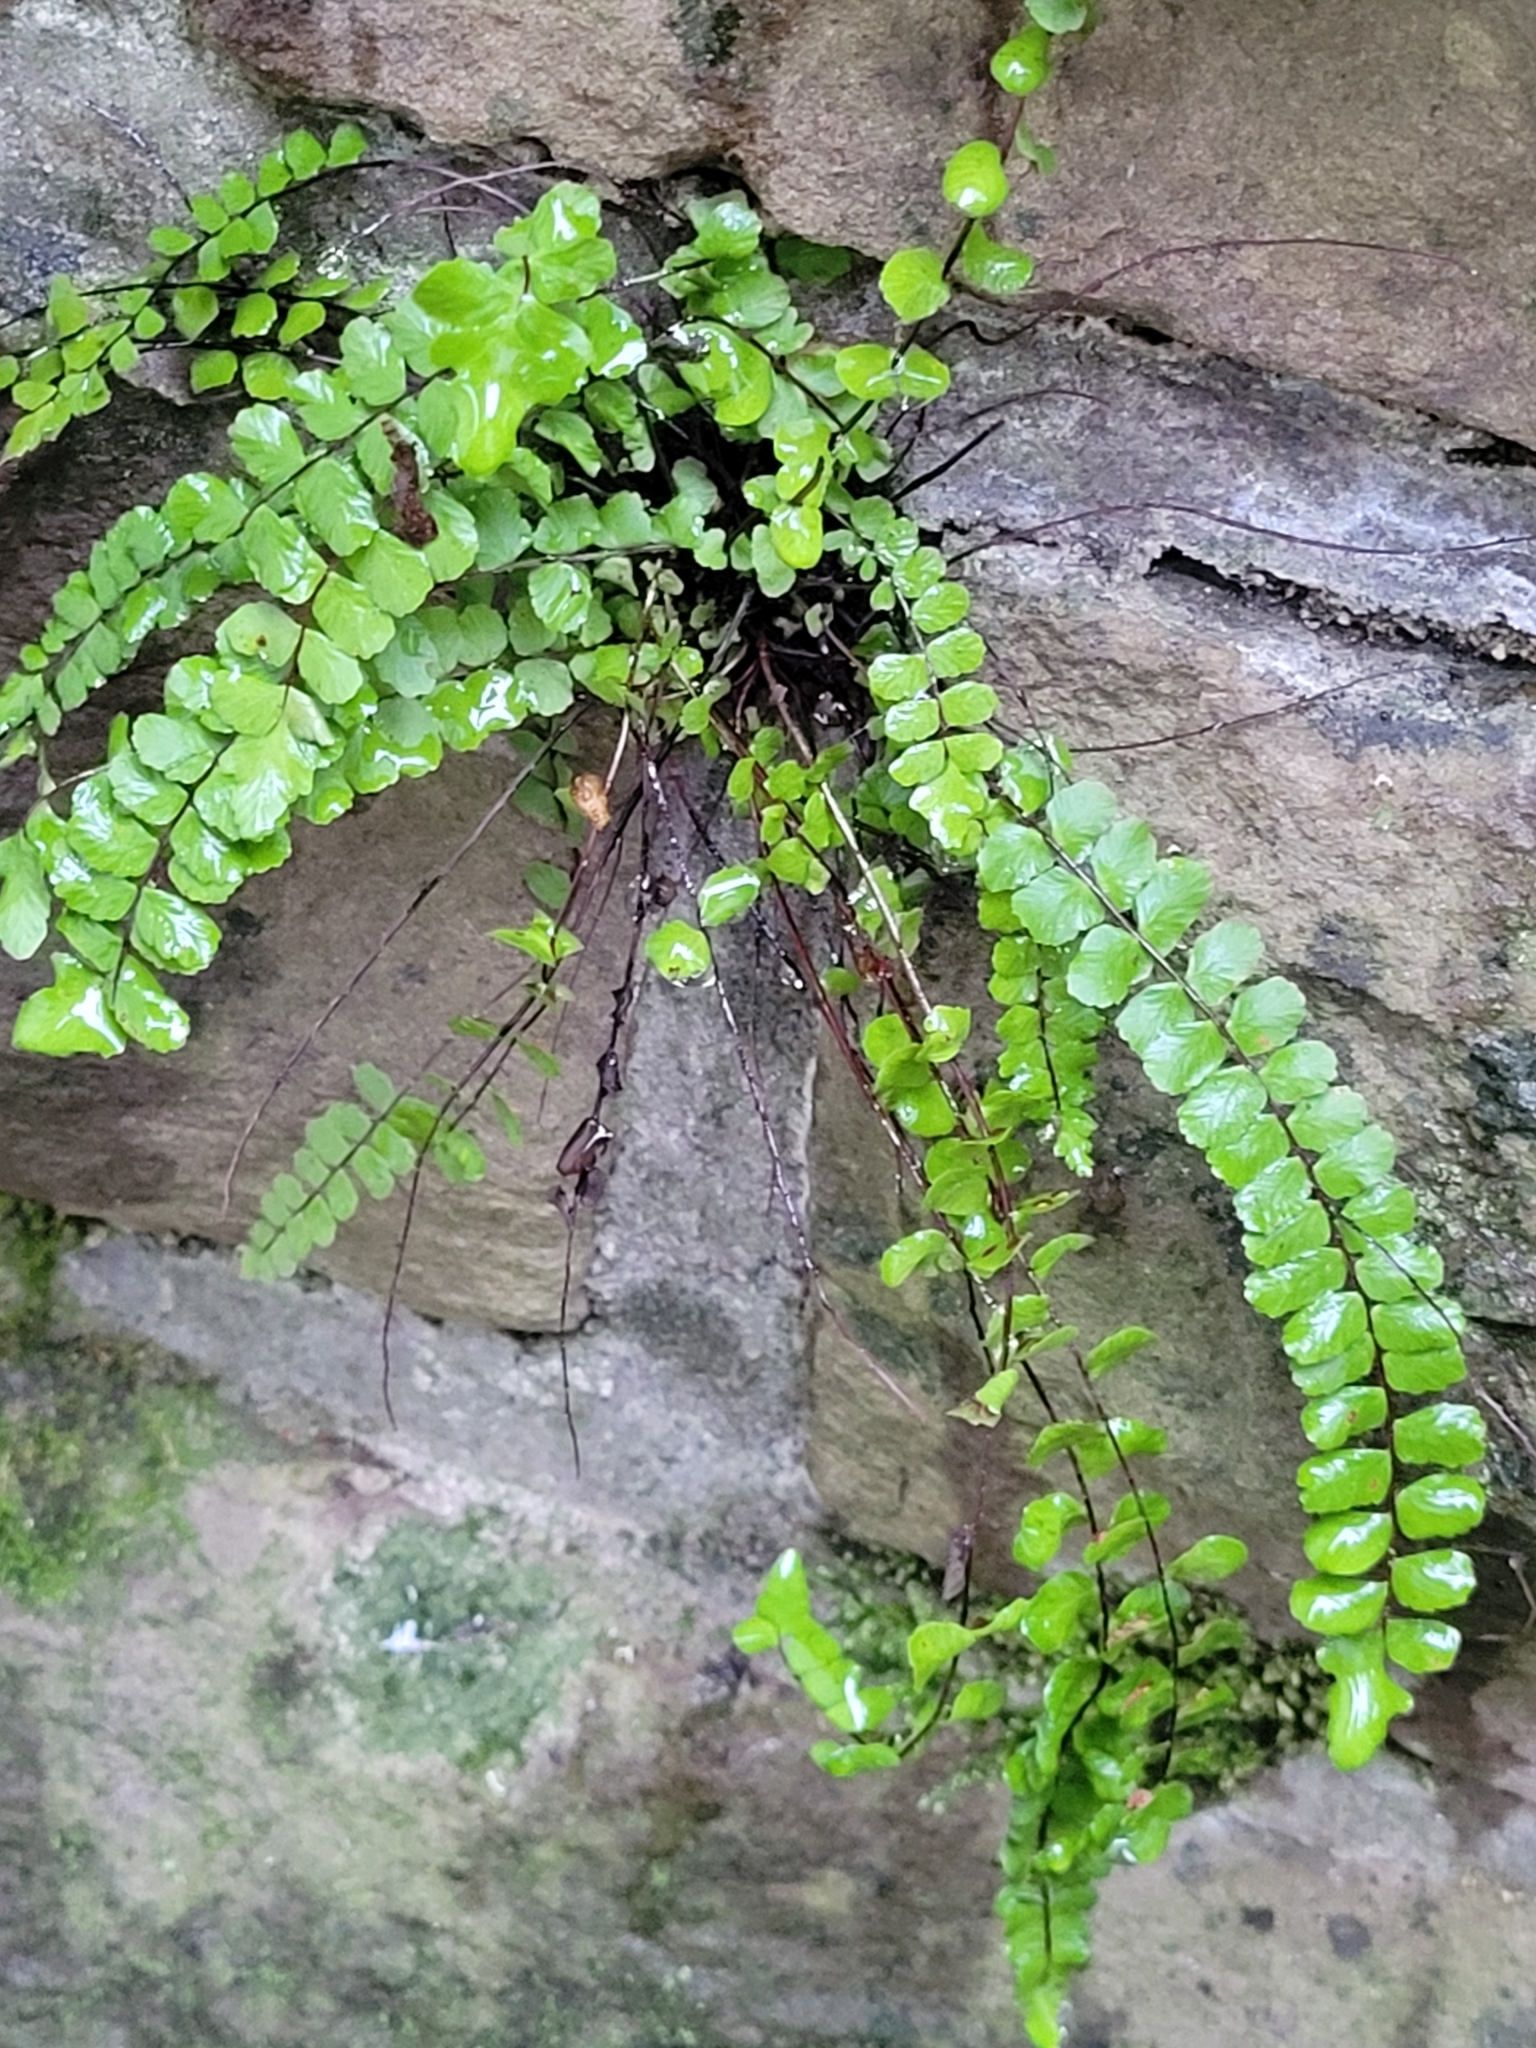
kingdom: Plantae
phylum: Tracheophyta
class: Polypodiopsida
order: Polypodiales
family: Aspleniaceae
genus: Asplenium
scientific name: Asplenium trichomanes
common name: Maidenhair spleenwort
